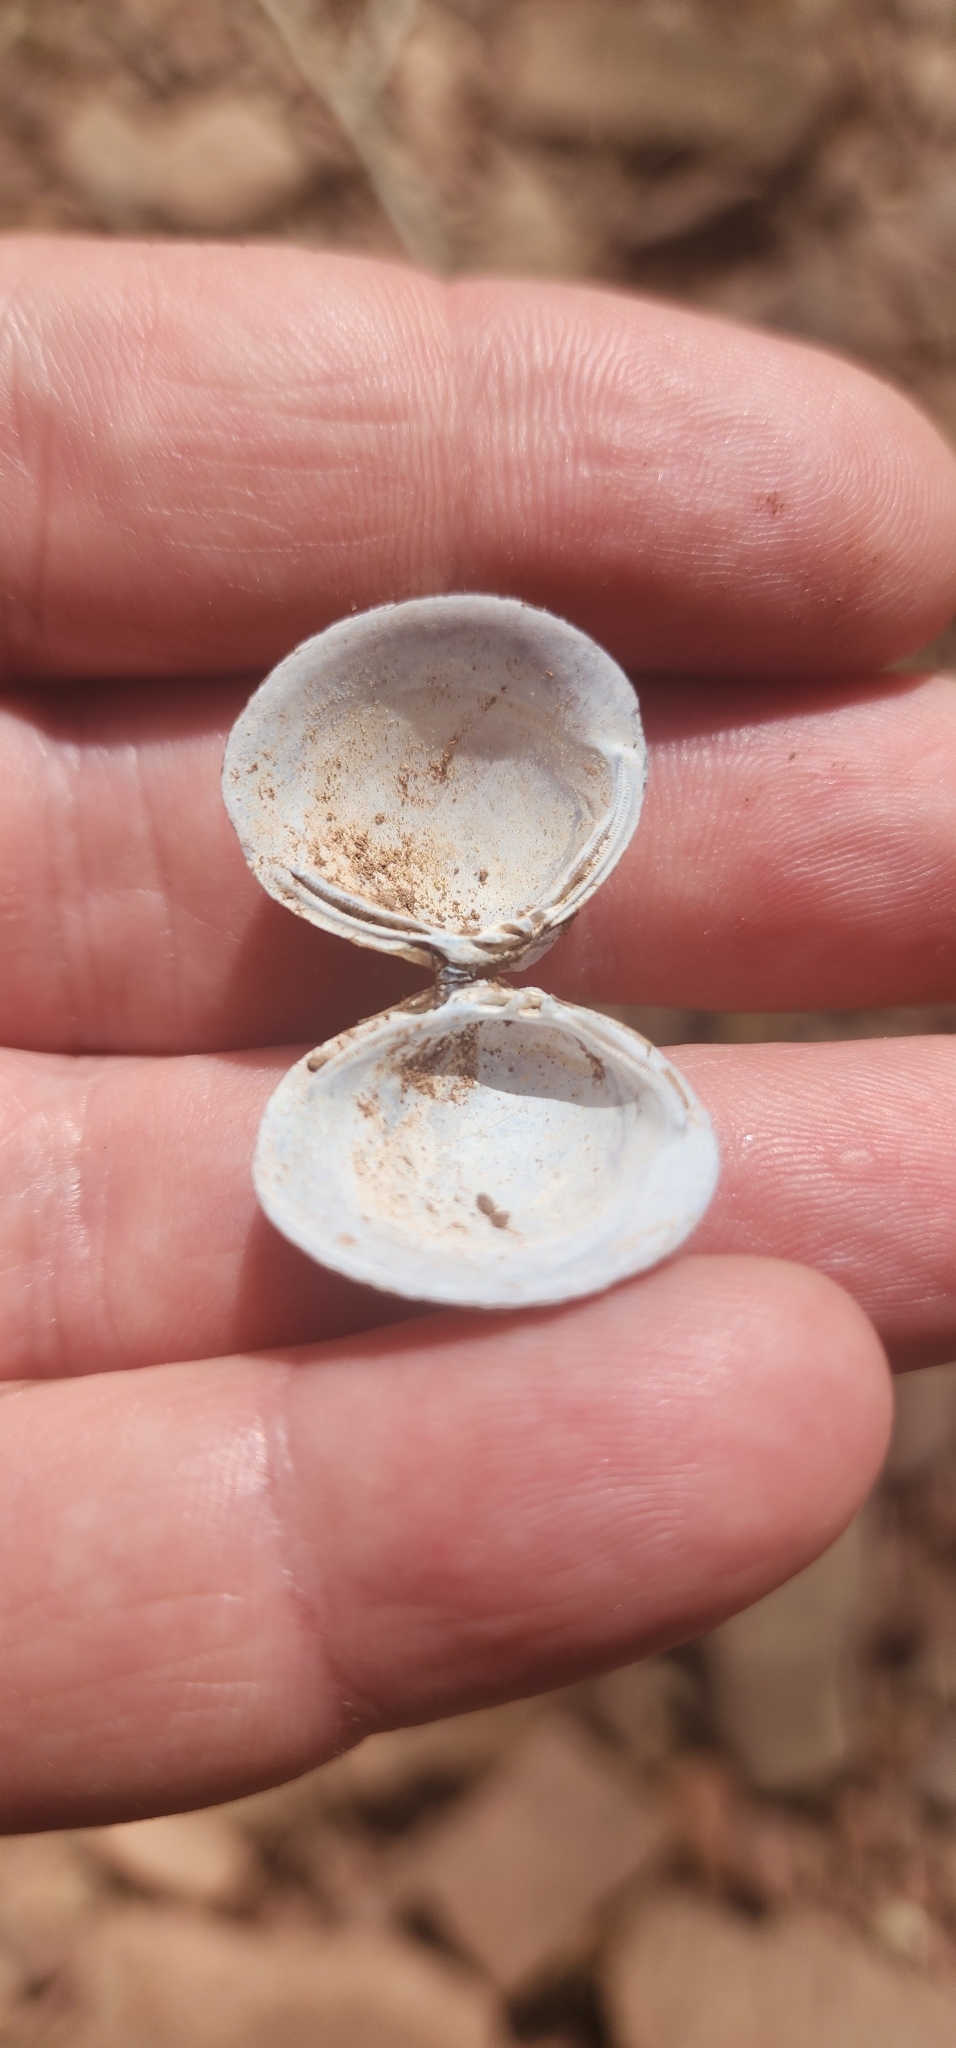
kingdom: Animalia
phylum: Mollusca
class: Bivalvia
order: Venerida
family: Cyrenidae
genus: Corbicula
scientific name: Corbicula fluminea
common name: Asian clam
